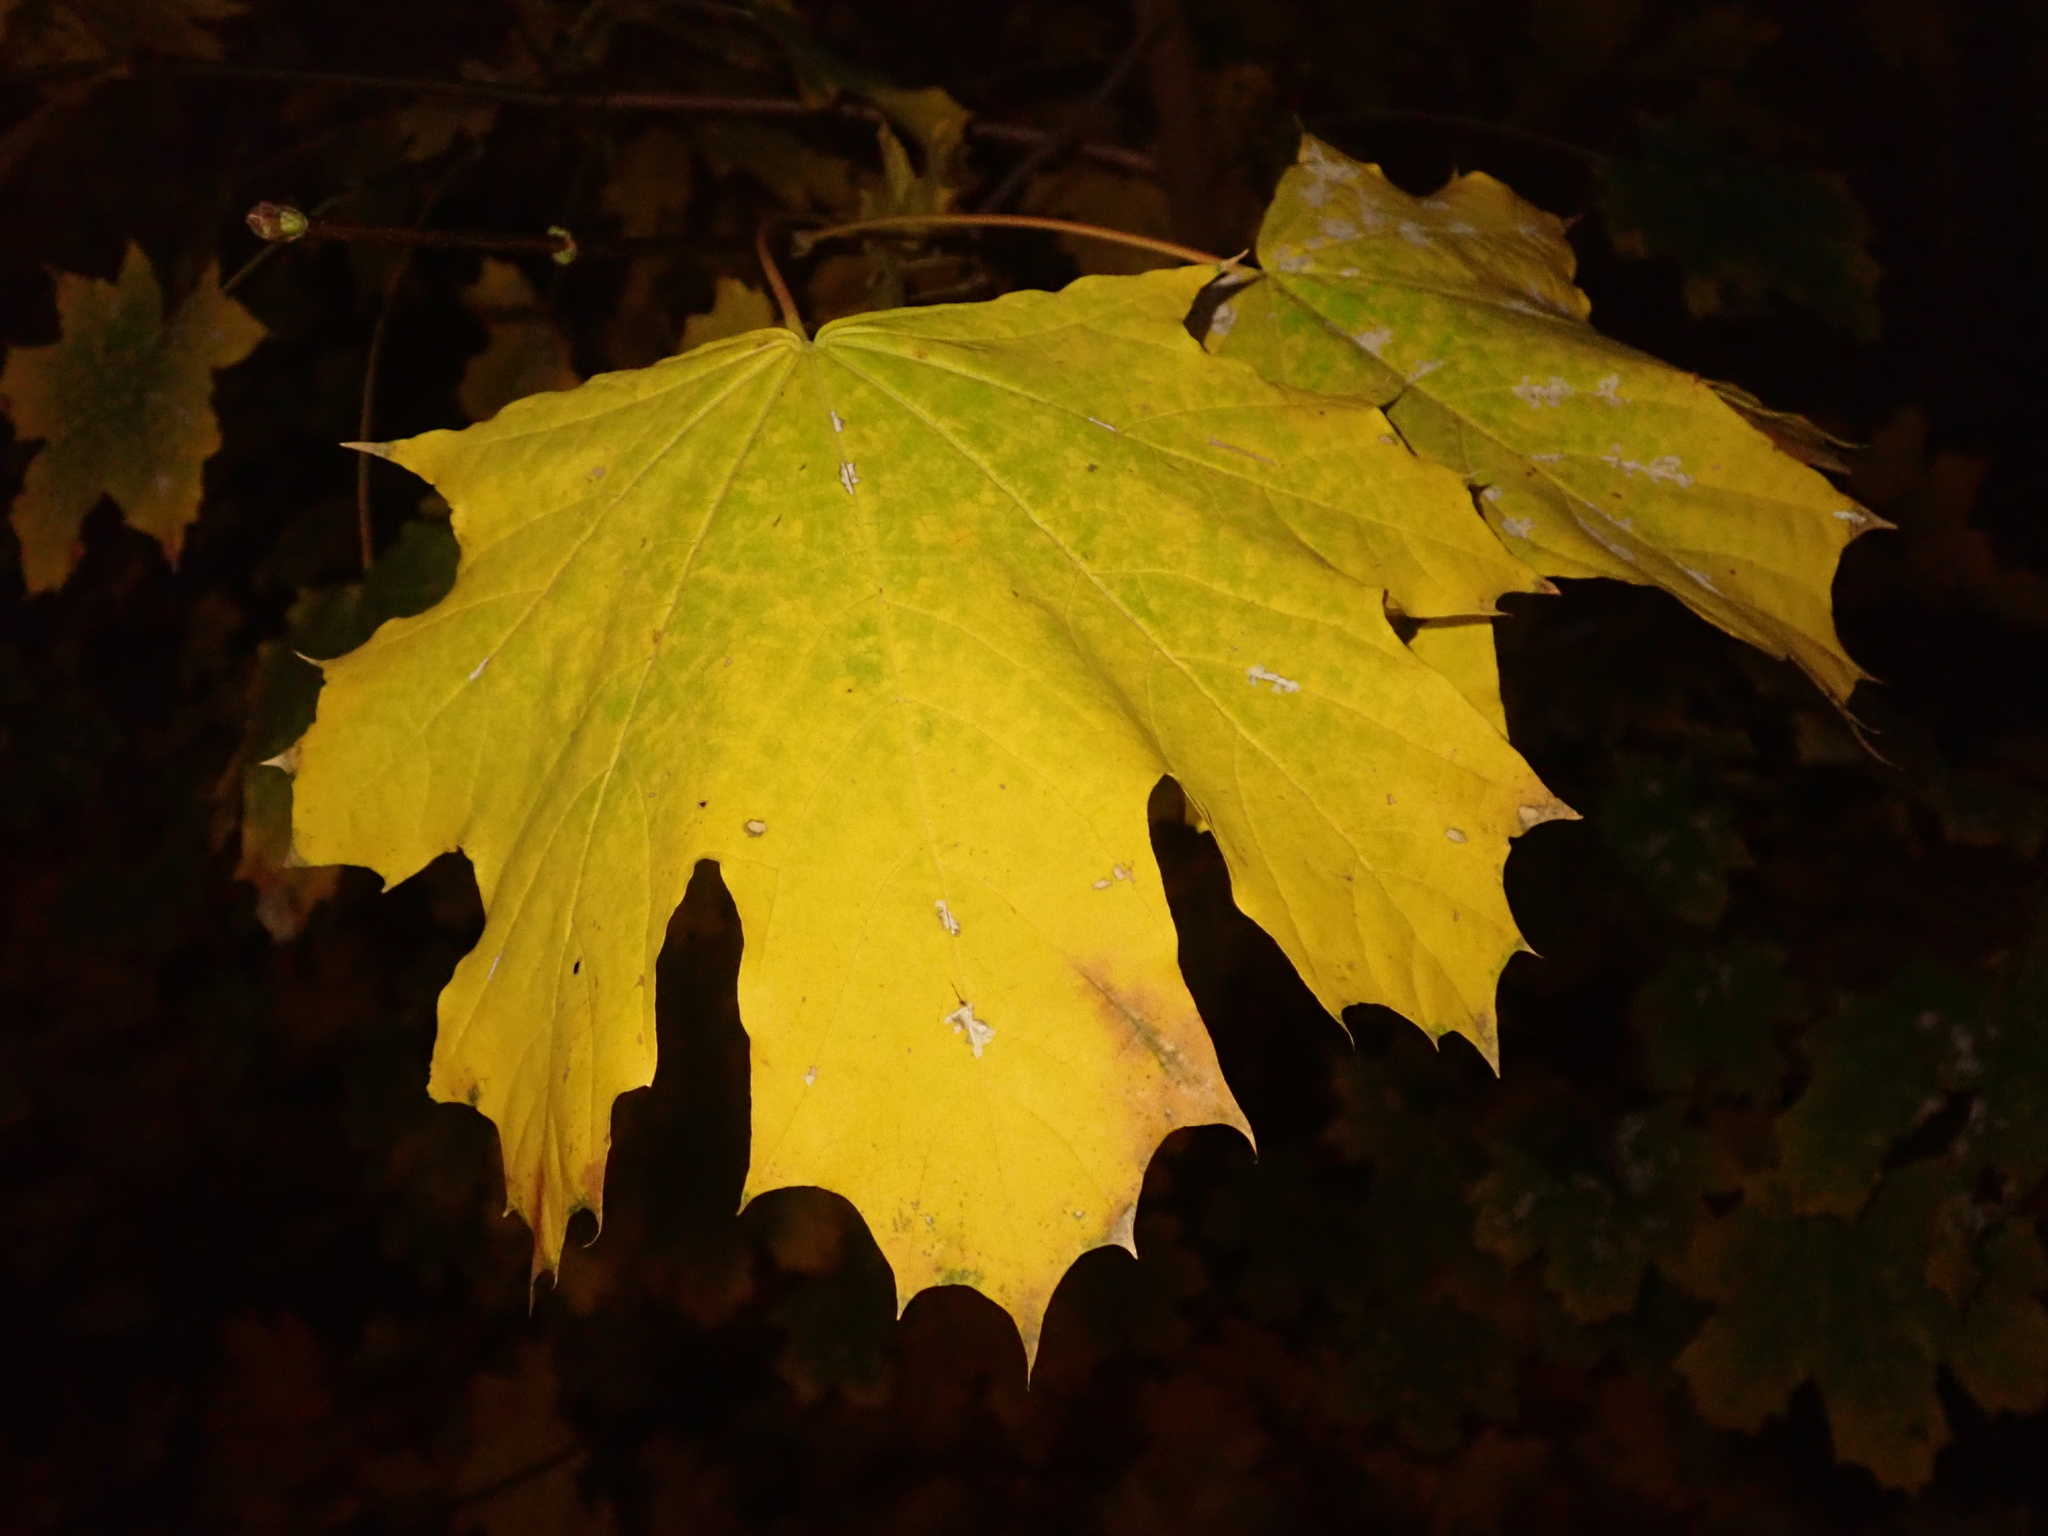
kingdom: Plantae
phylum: Tracheophyta
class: Magnoliopsida
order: Sapindales
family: Sapindaceae
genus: Acer
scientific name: Acer platanoides
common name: Norway maple
